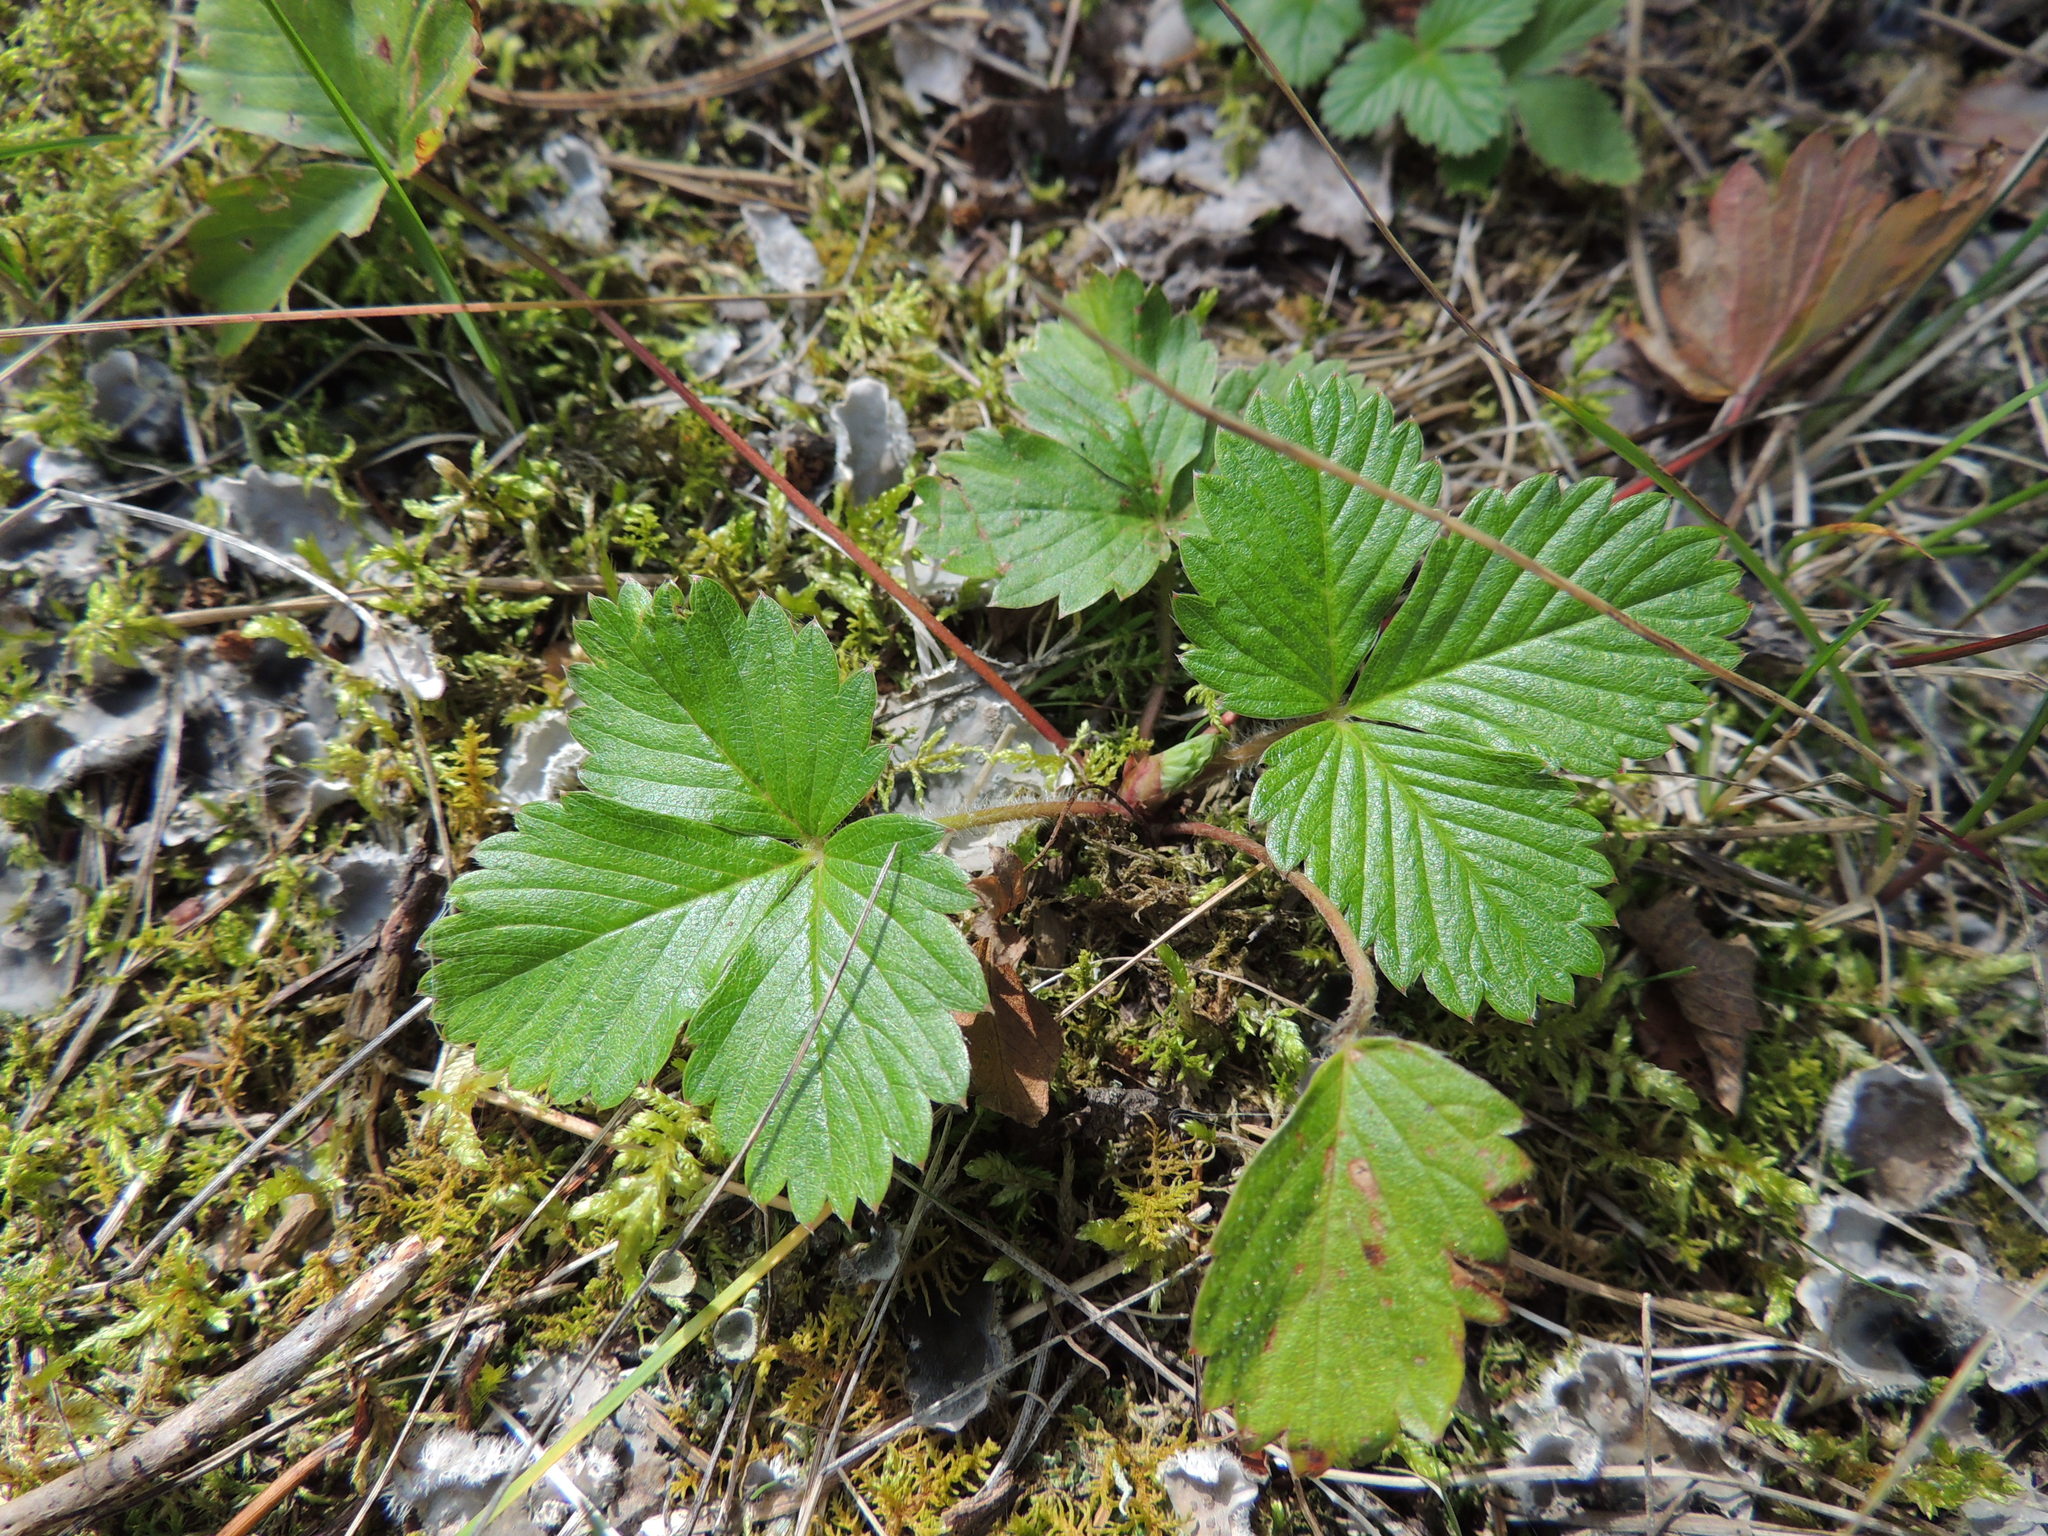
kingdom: Plantae
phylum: Tracheophyta
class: Magnoliopsida
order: Rosales
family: Rosaceae
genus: Fragaria
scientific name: Fragaria vesca
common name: Wild strawberry
